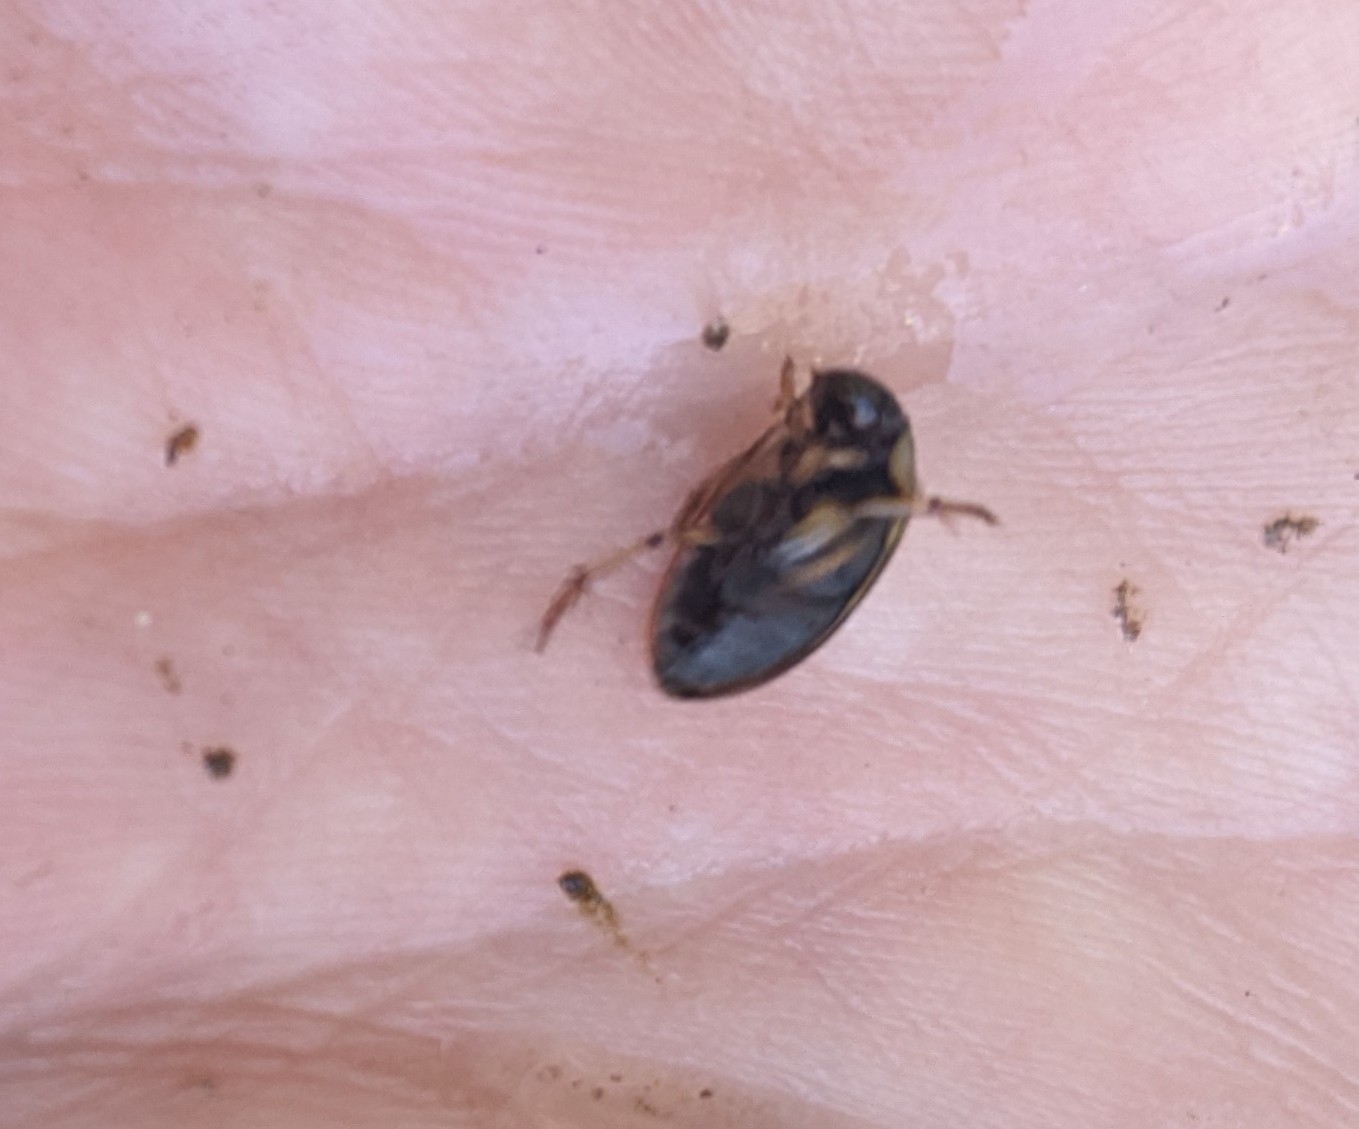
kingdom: Animalia
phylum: Arthropoda
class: Insecta
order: Coleoptera
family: Hydrophilidae
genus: Tropisternus
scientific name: Tropisternus
